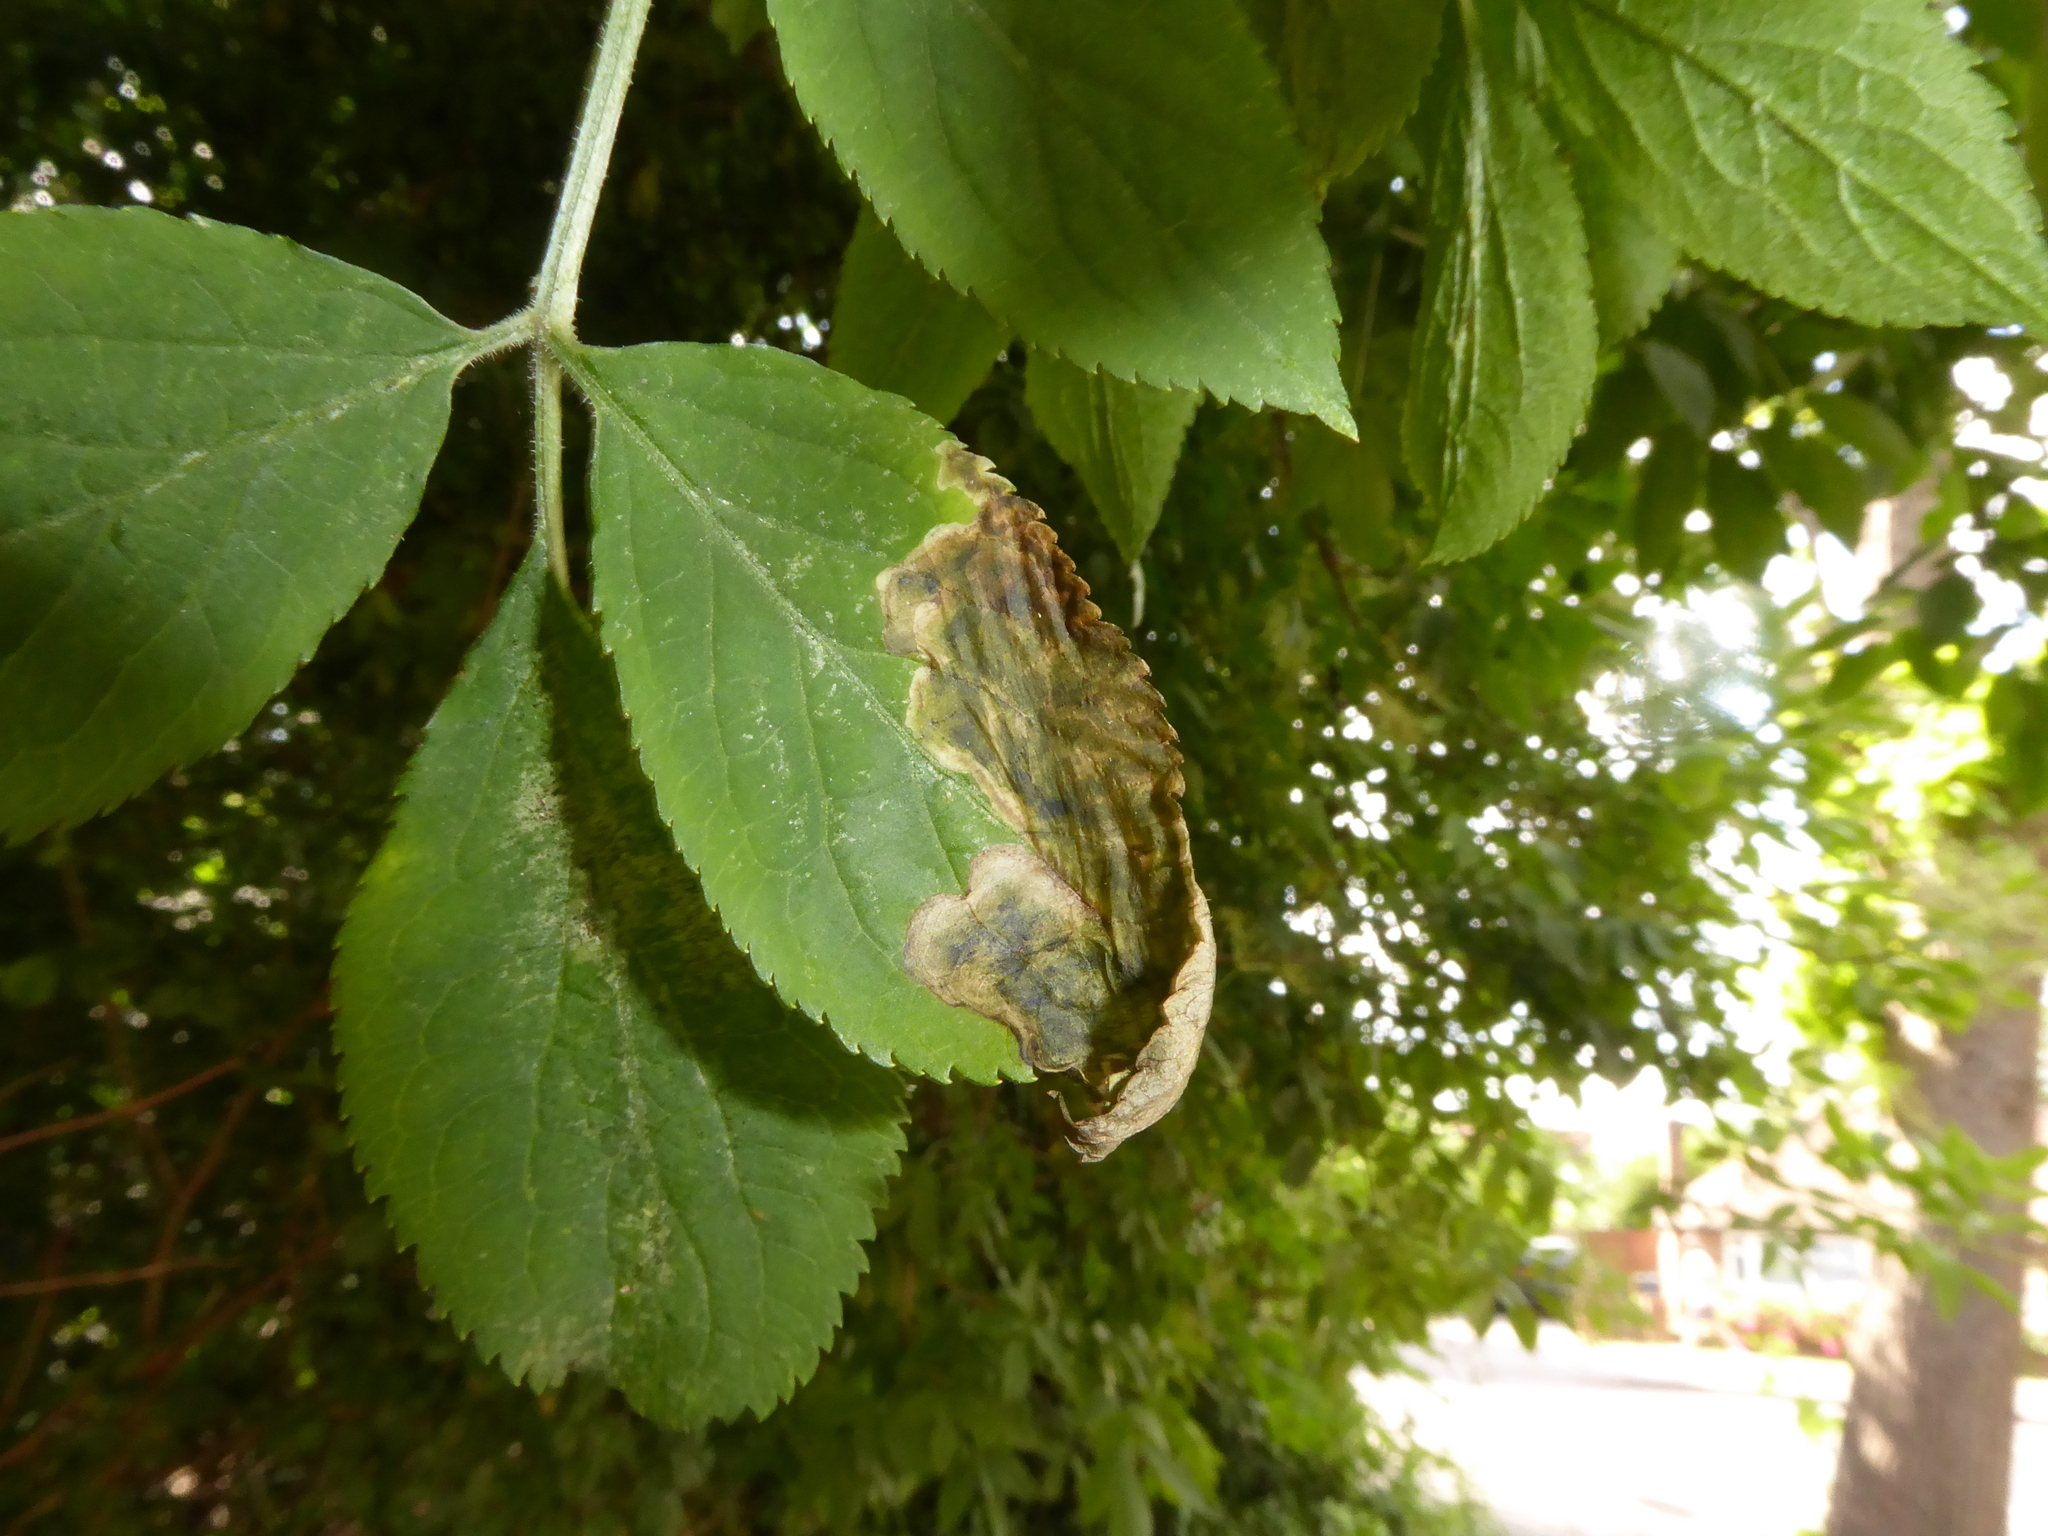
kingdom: Animalia
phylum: Arthropoda
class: Insecta
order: Diptera
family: Agromyzidae
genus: Liriomyza
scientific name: Liriomyza amoena
